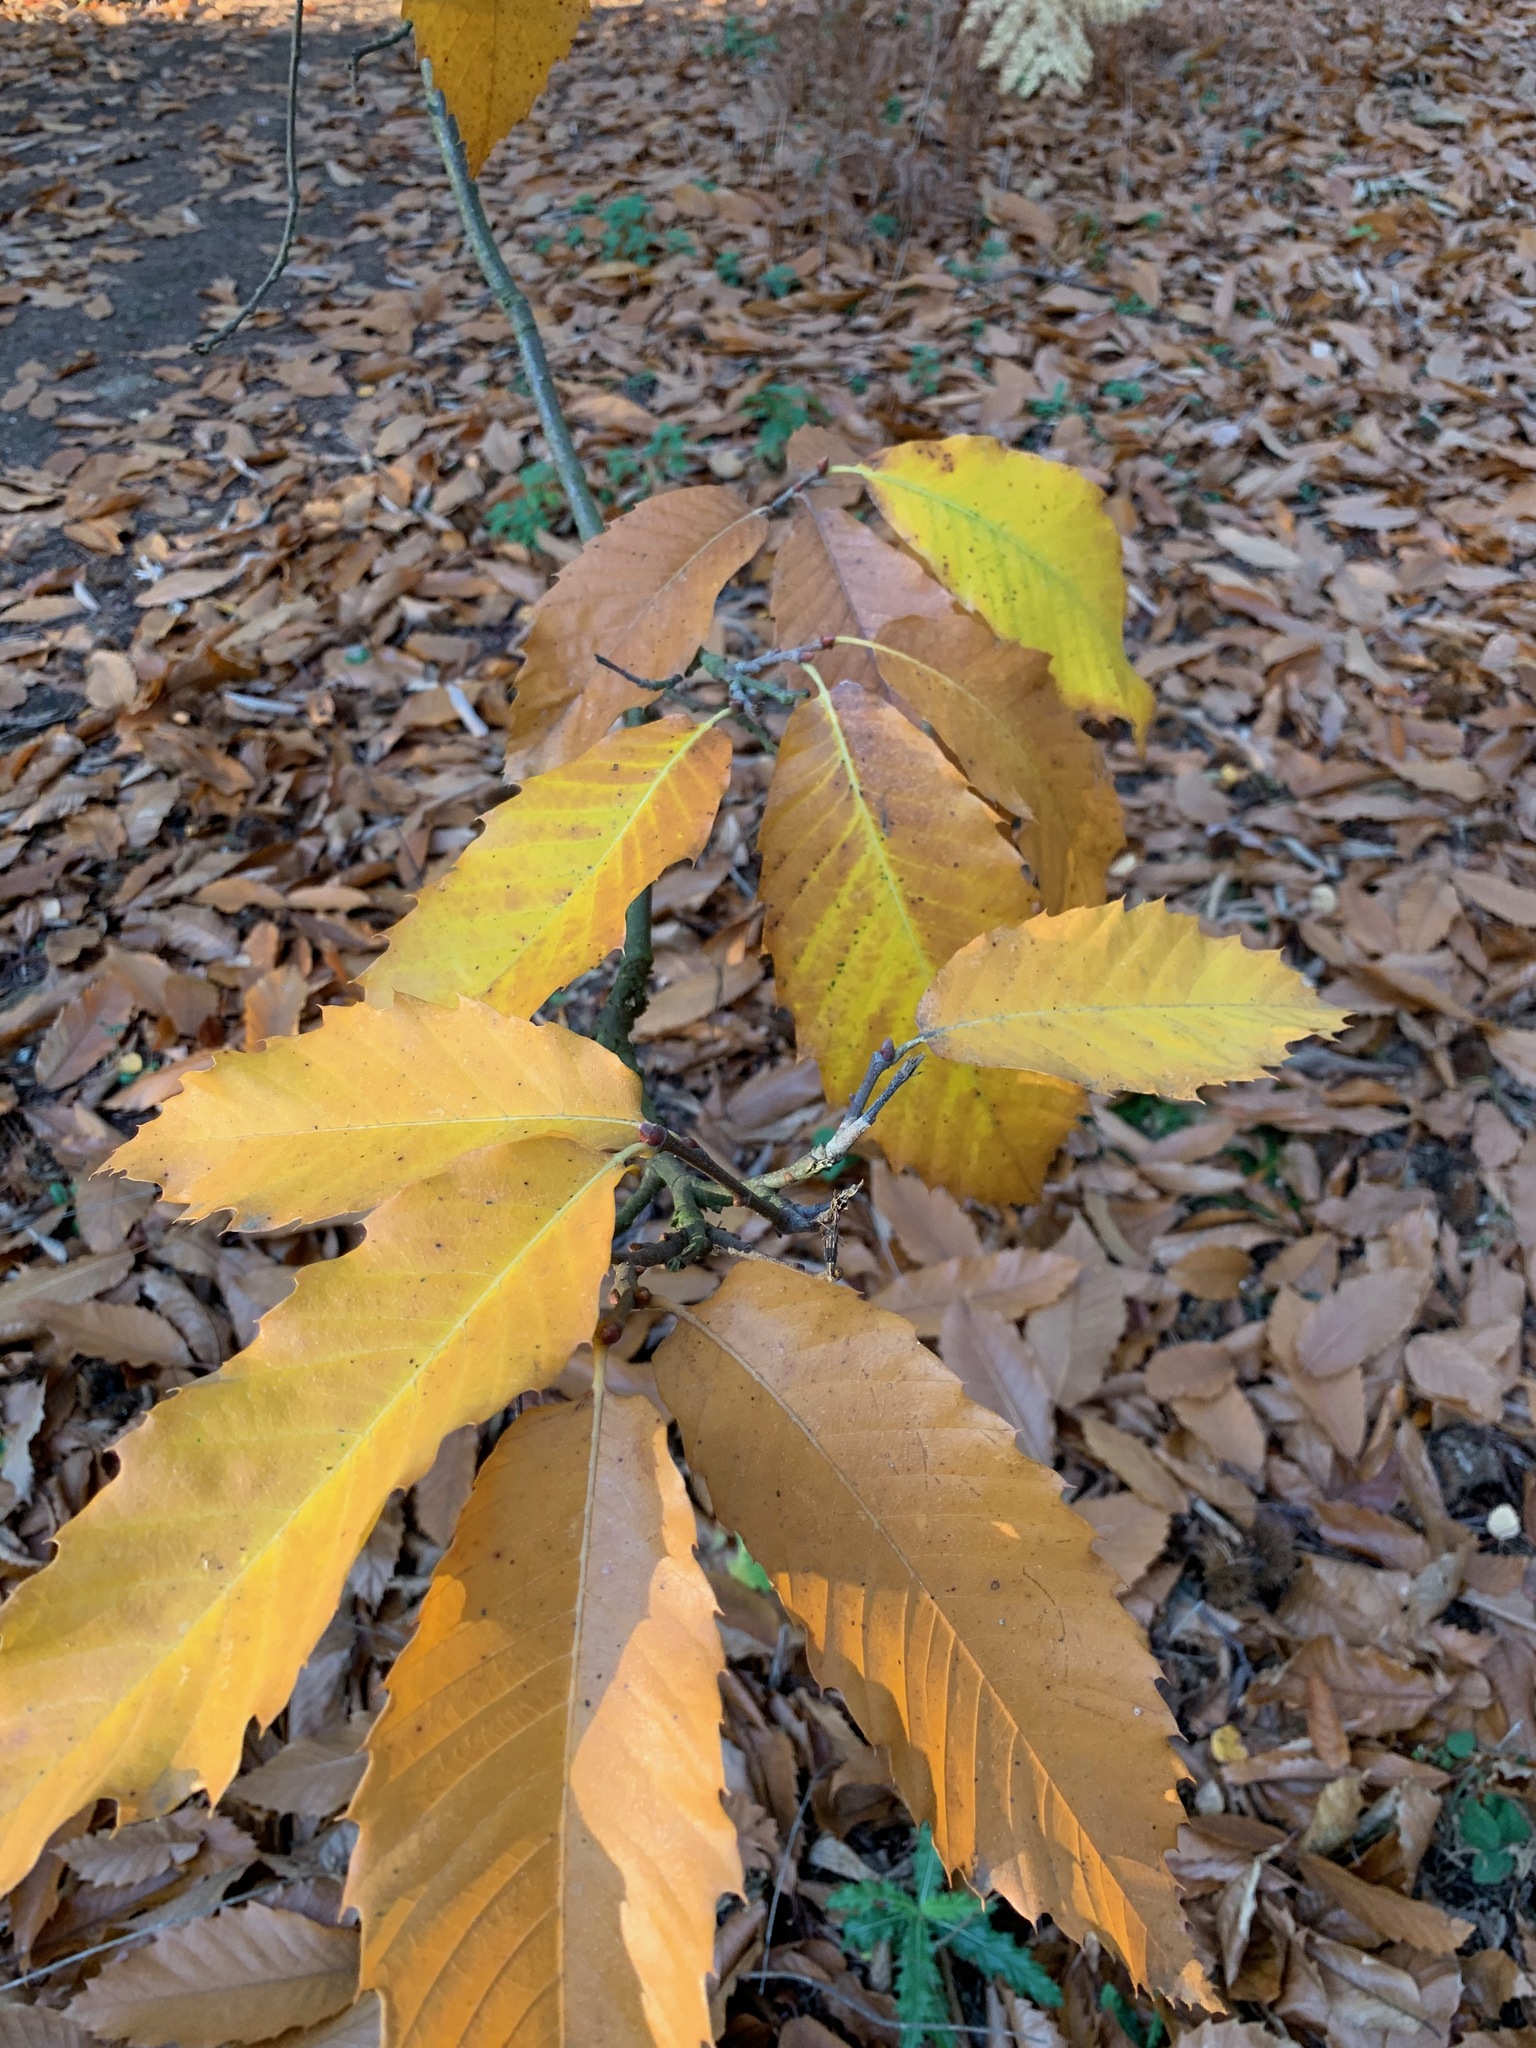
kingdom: Plantae
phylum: Tracheophyta
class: Magnoliopsida
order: Fagales
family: Fagaceae
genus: Castanea
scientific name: Castanea sativa
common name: Sweet chestnut
